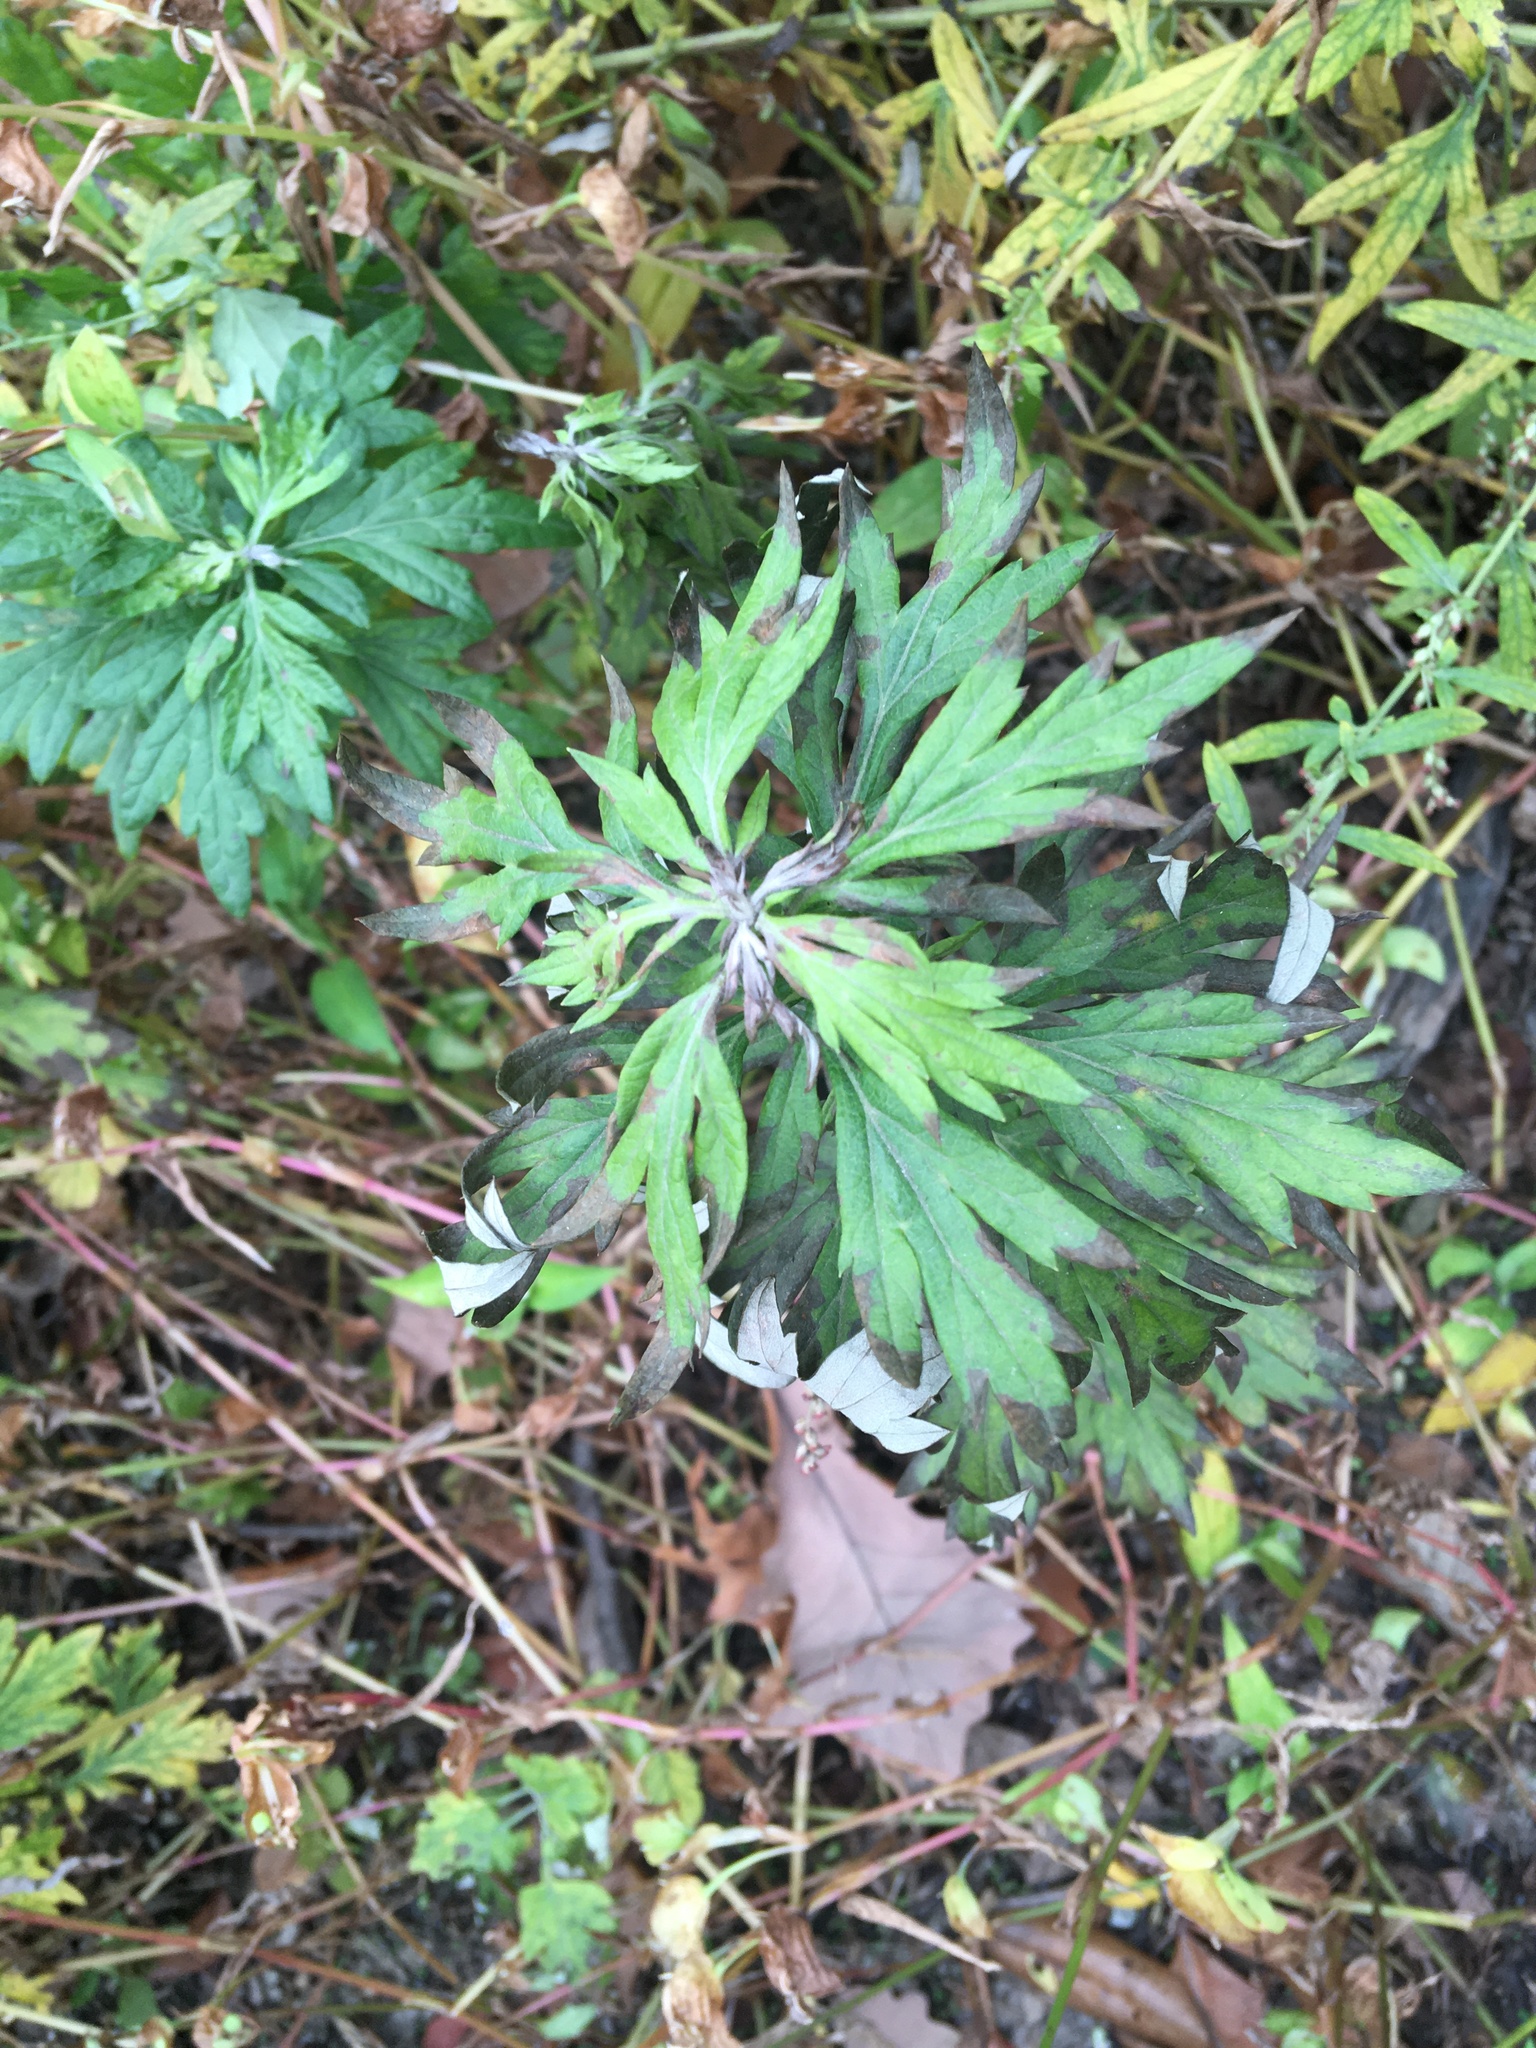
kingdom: Plantae
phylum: Tracheophyta
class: Magnoliopsida
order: Asterales
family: Asteraceae
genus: Artemisia
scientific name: Artemisia vulgaris
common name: Mugwort
